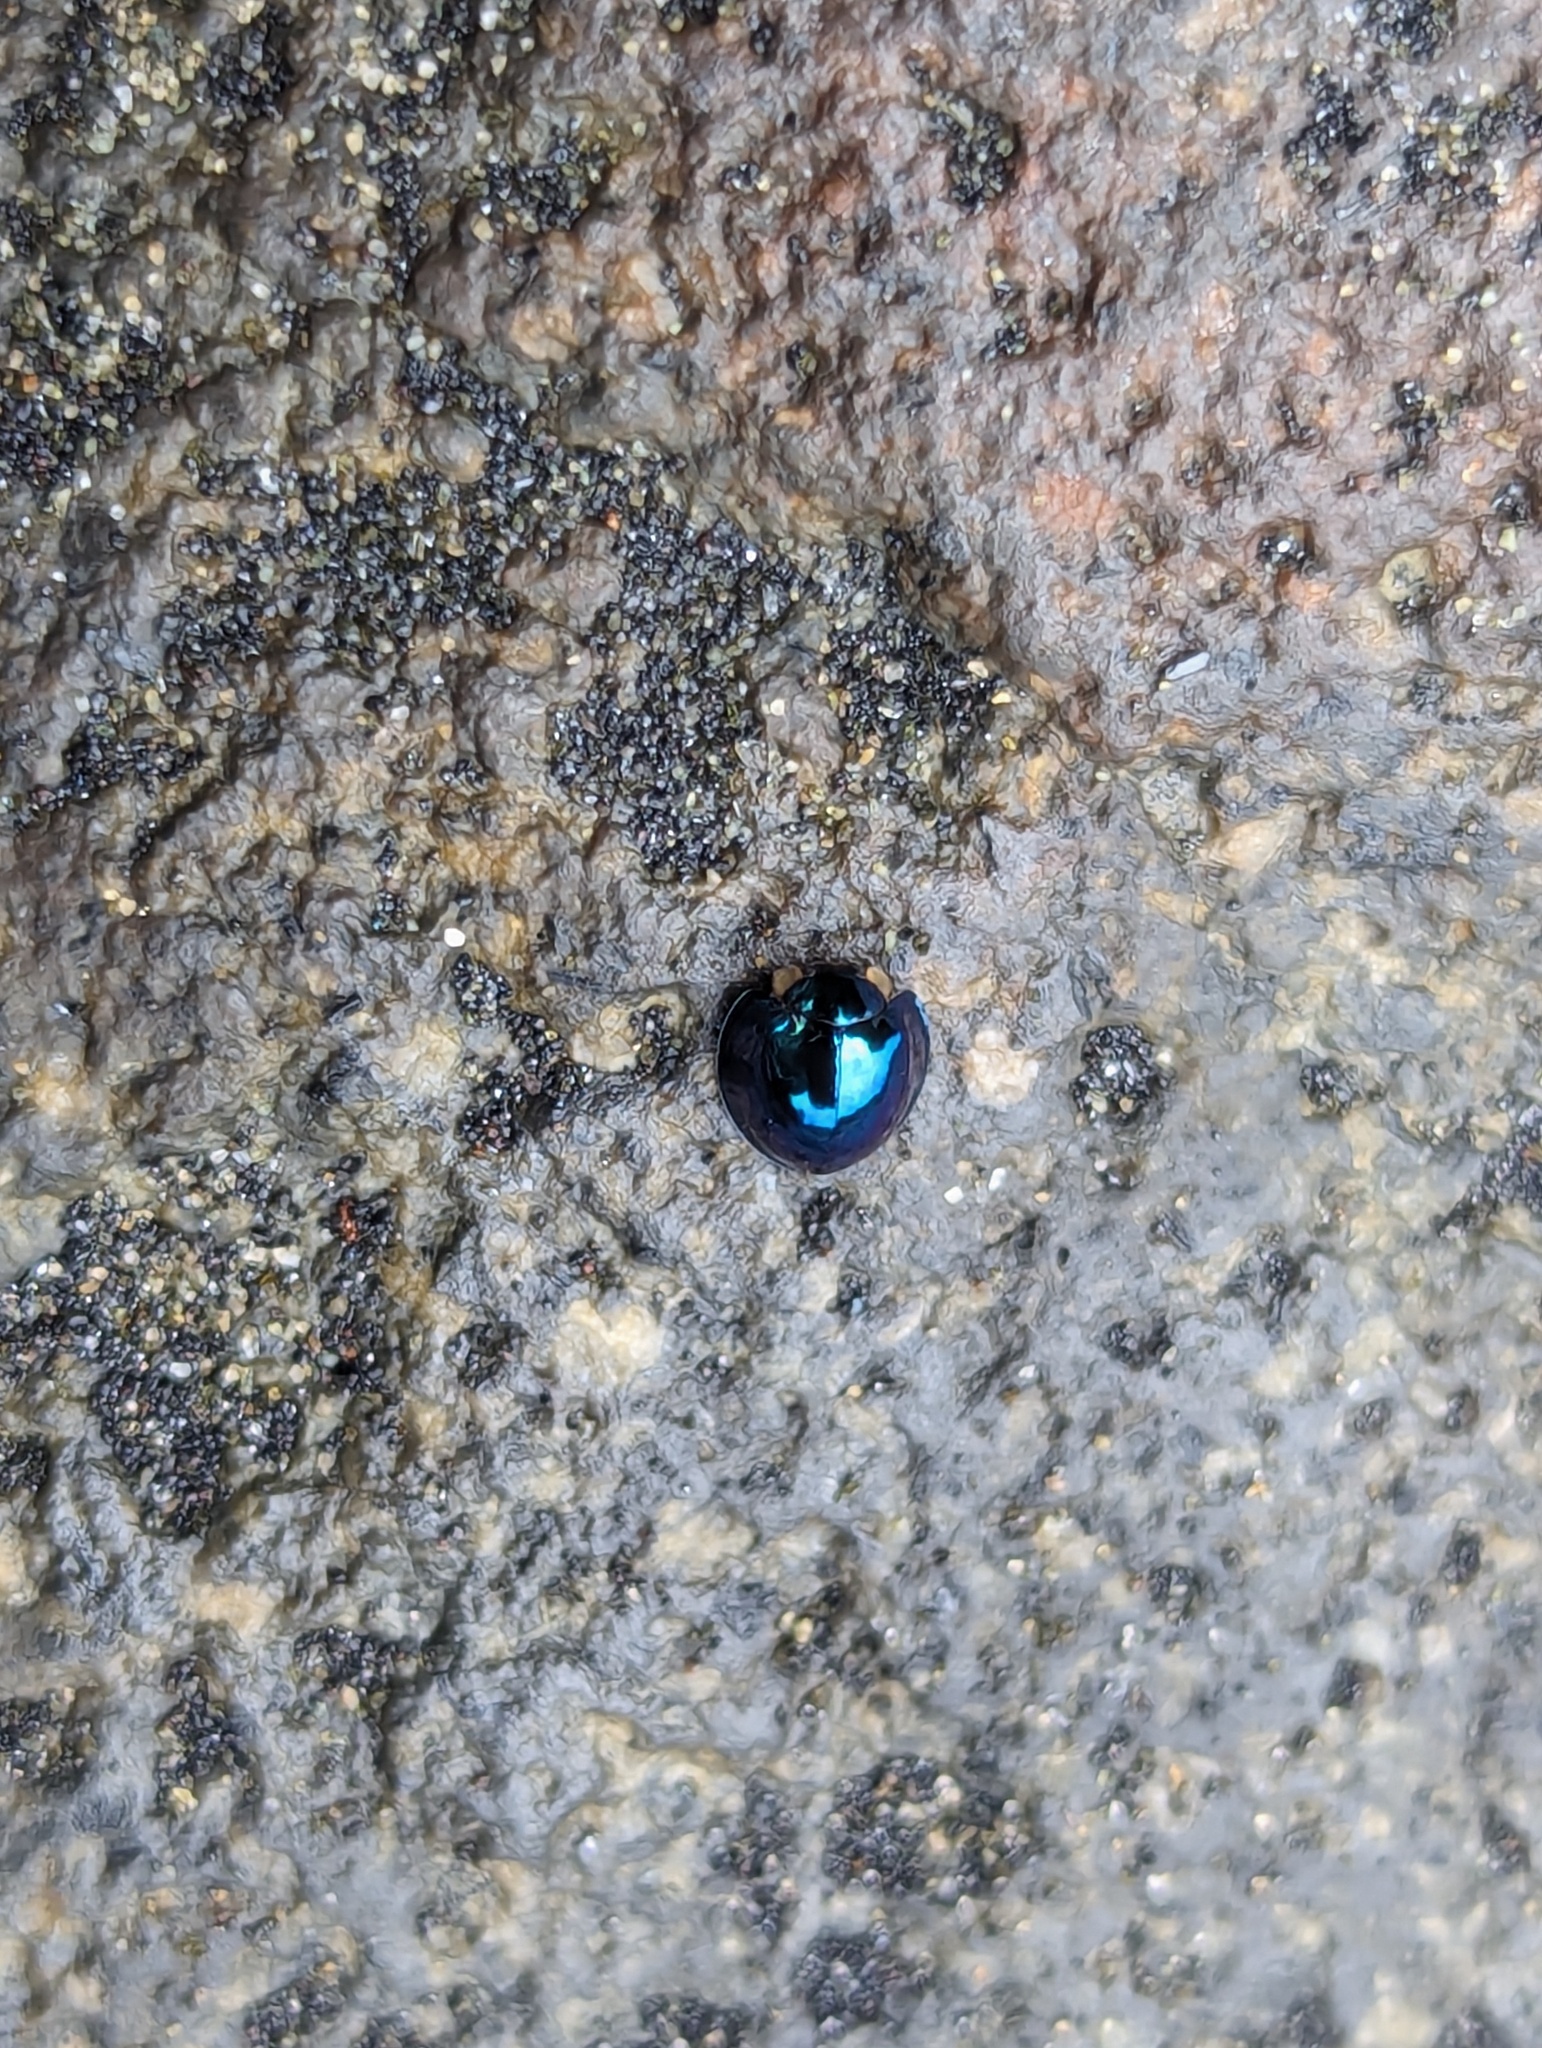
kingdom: Animalia
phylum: Arthropoda
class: Insecta
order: Coleoptera
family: Coccinellidae
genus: Halmus
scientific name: Halmus chalybeus
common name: Steel blue ladybird beetle
